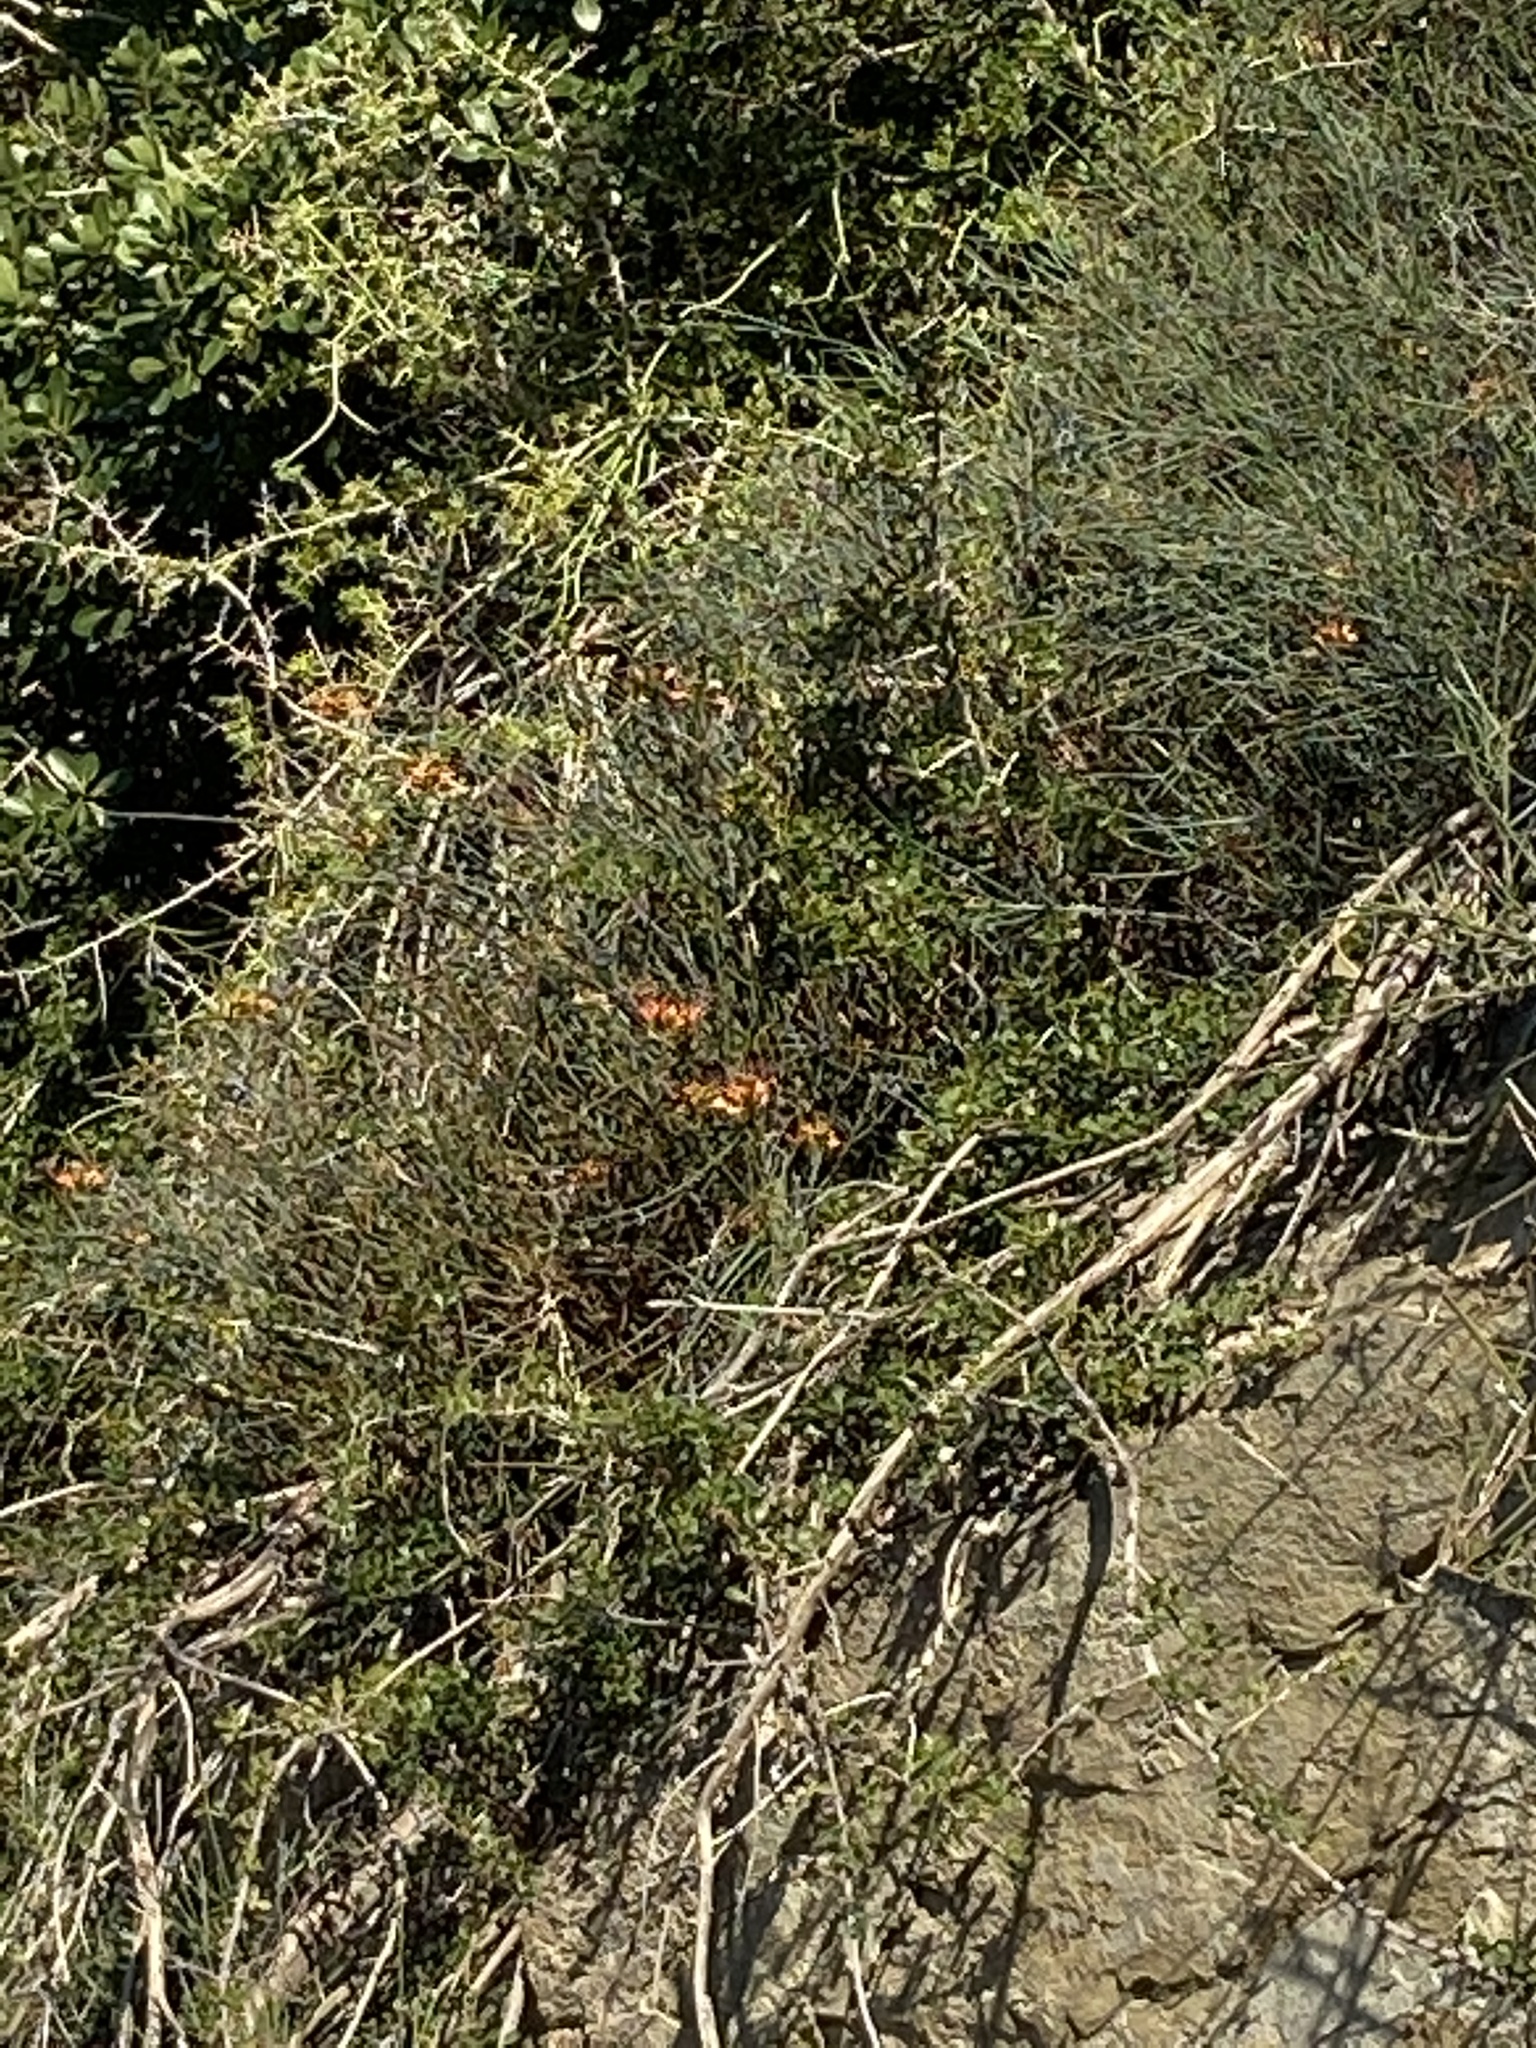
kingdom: Plantae
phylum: Tracheophyta
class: Magnoliopsida
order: Brassicales
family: Capparaceae
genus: Cadaba
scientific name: Cadaba aphylla
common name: Black storm
